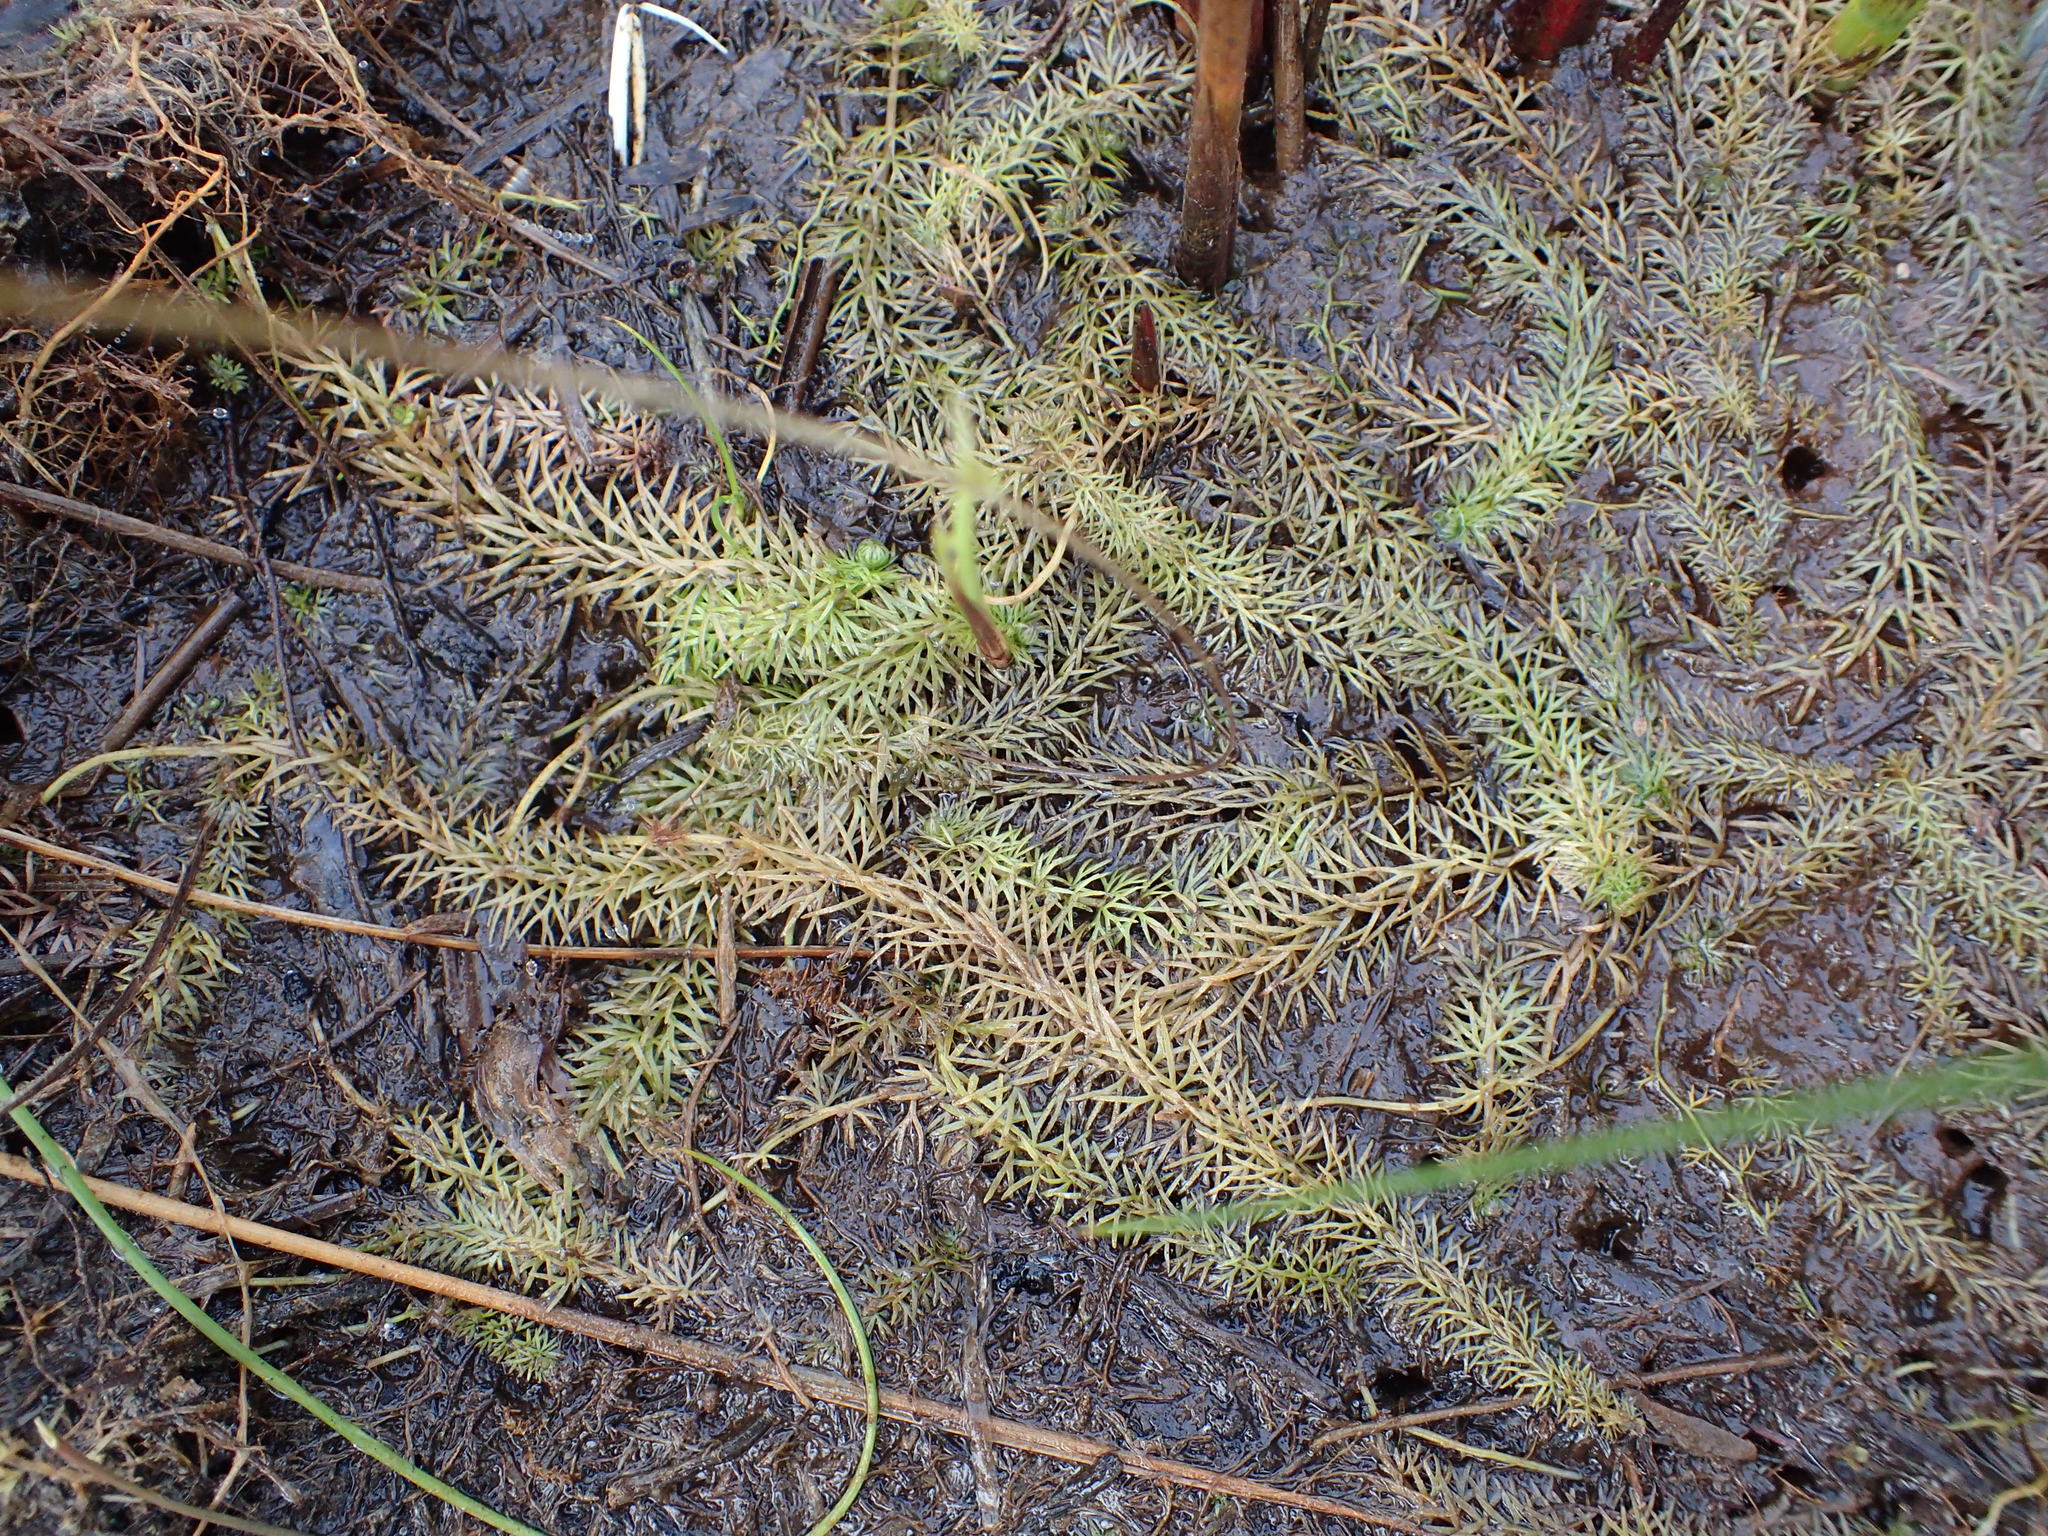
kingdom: Plantae
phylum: Tracheophyta
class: Magnoliopsida
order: Lamiales
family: Lentibulariaceae
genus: Utricularia
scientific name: Utricularia intermedia
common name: Intermediate bladderwort
